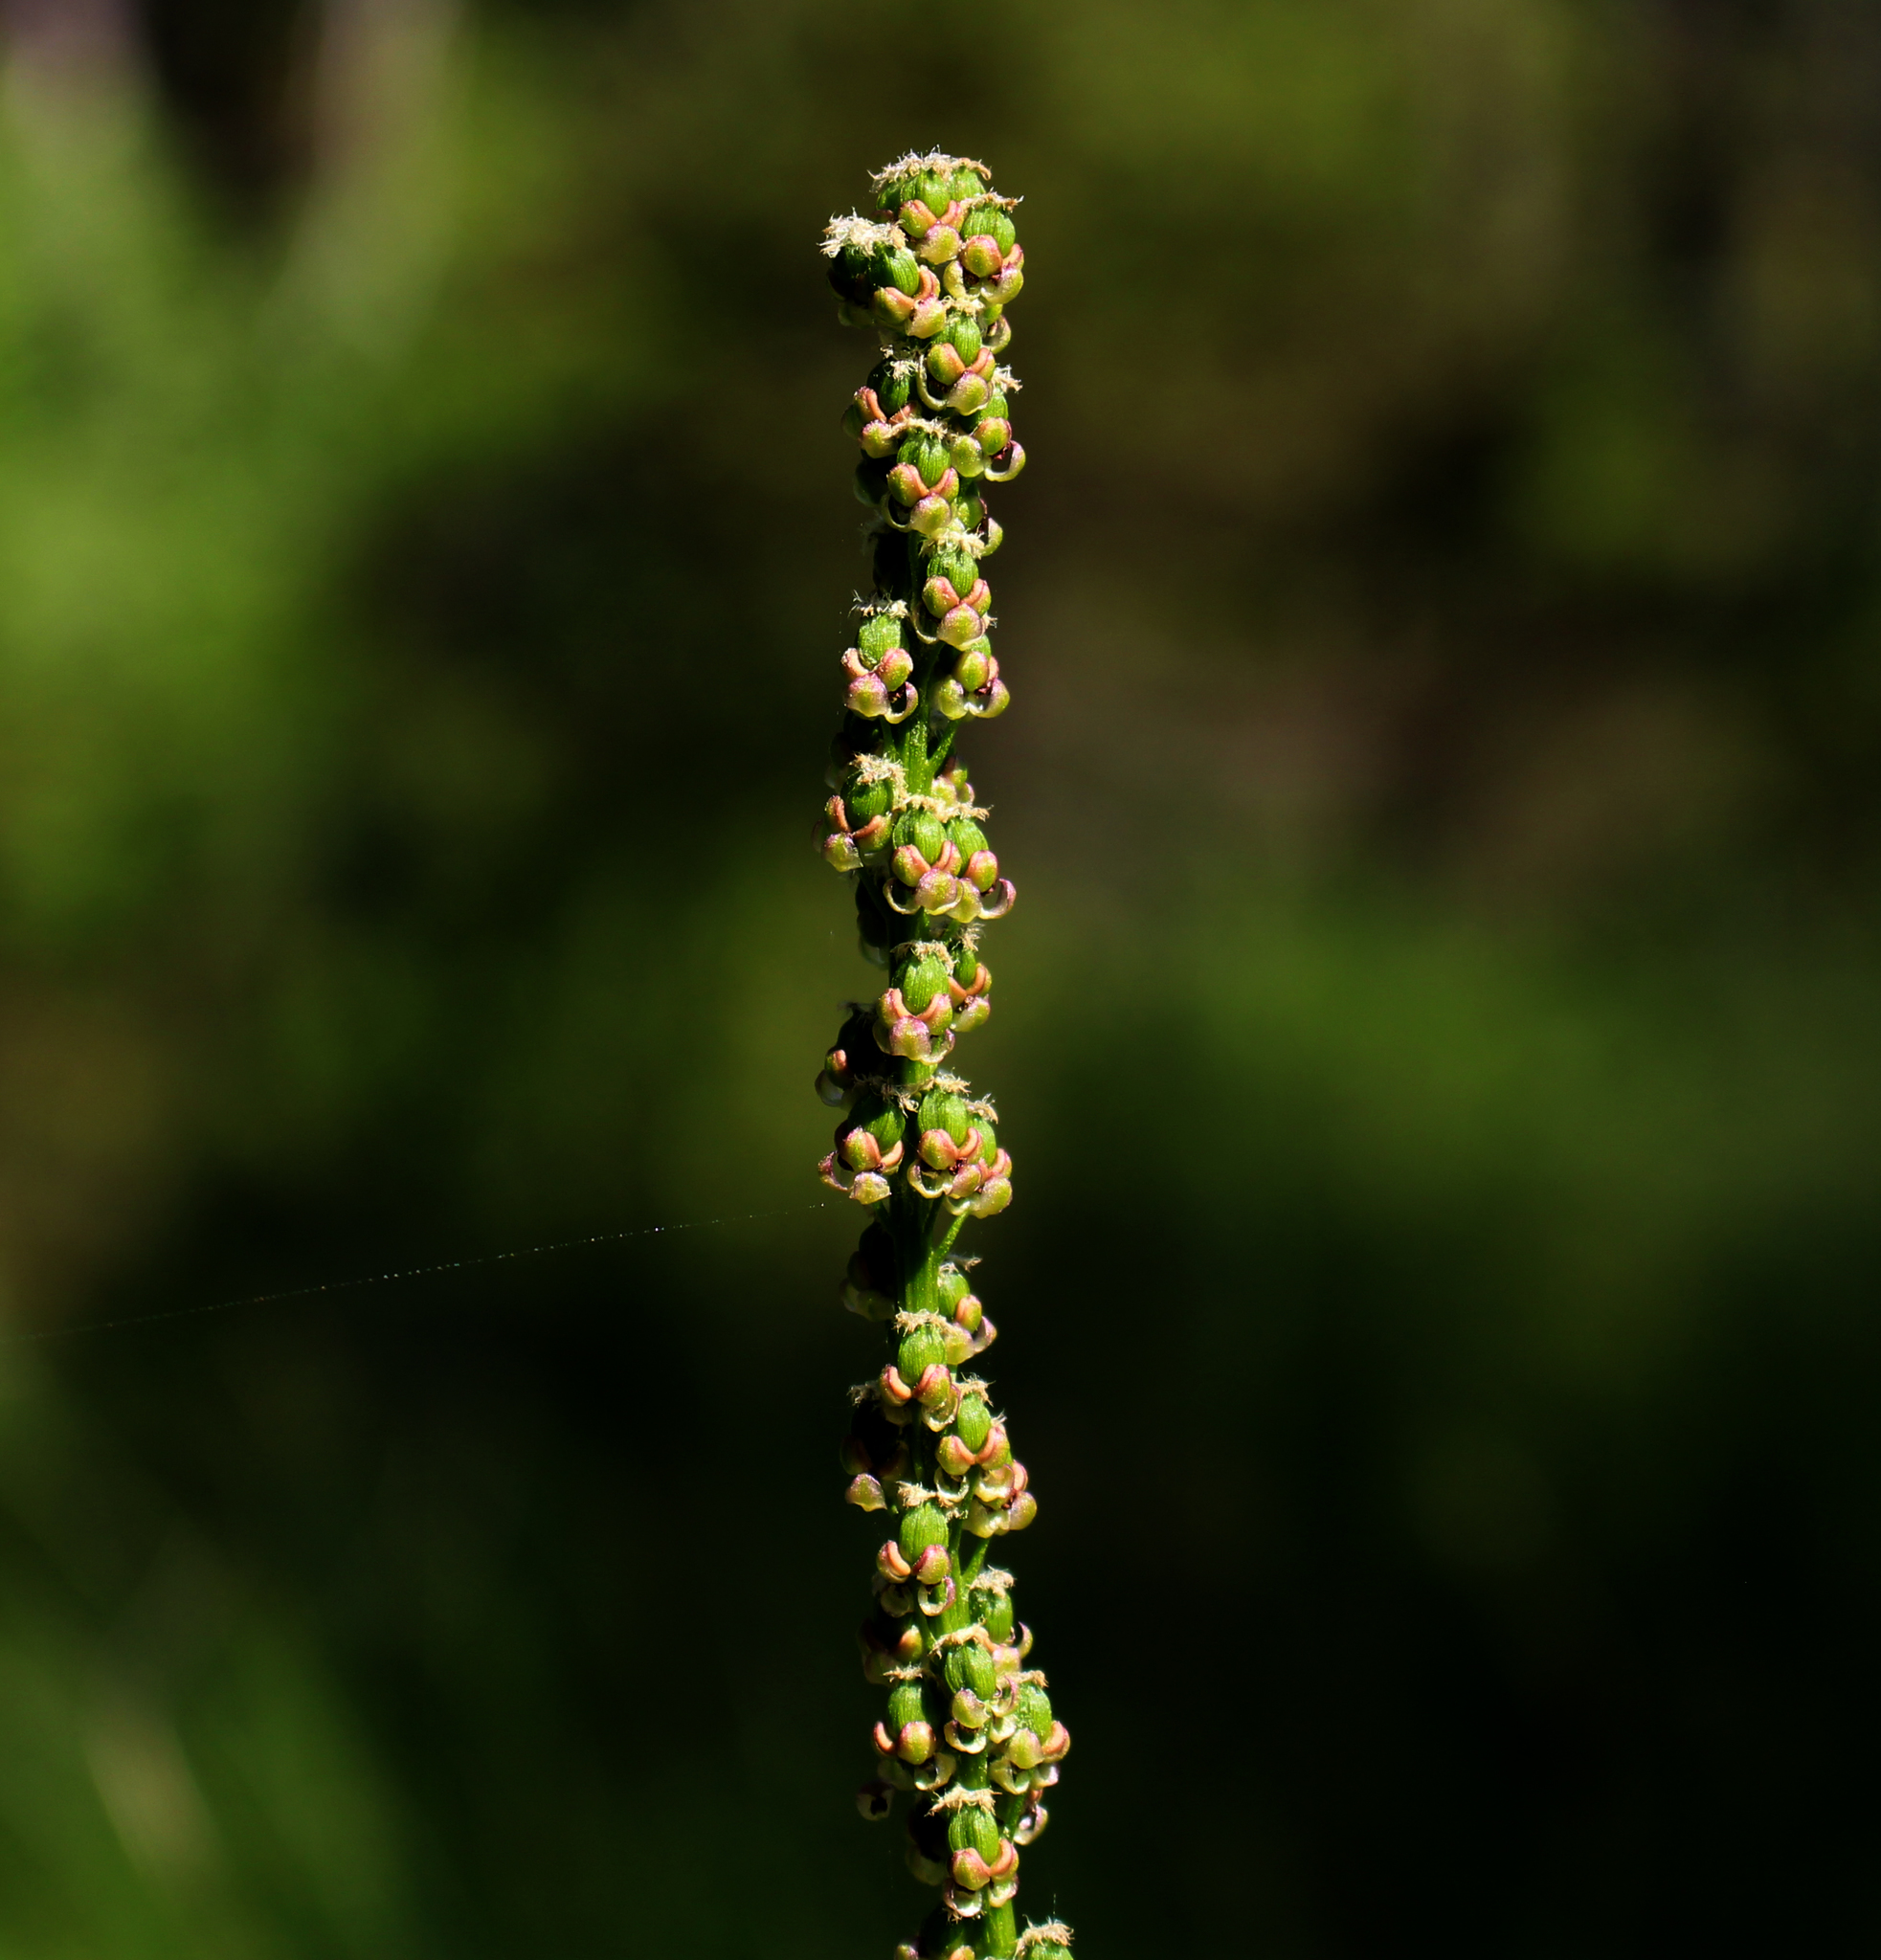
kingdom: Plantae
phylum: Tracheophyta
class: Liliopsida
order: Alismatales
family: Juncaginaceae
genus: Triglochin
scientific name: Triglochin maritima
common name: Sea arrowgrass
